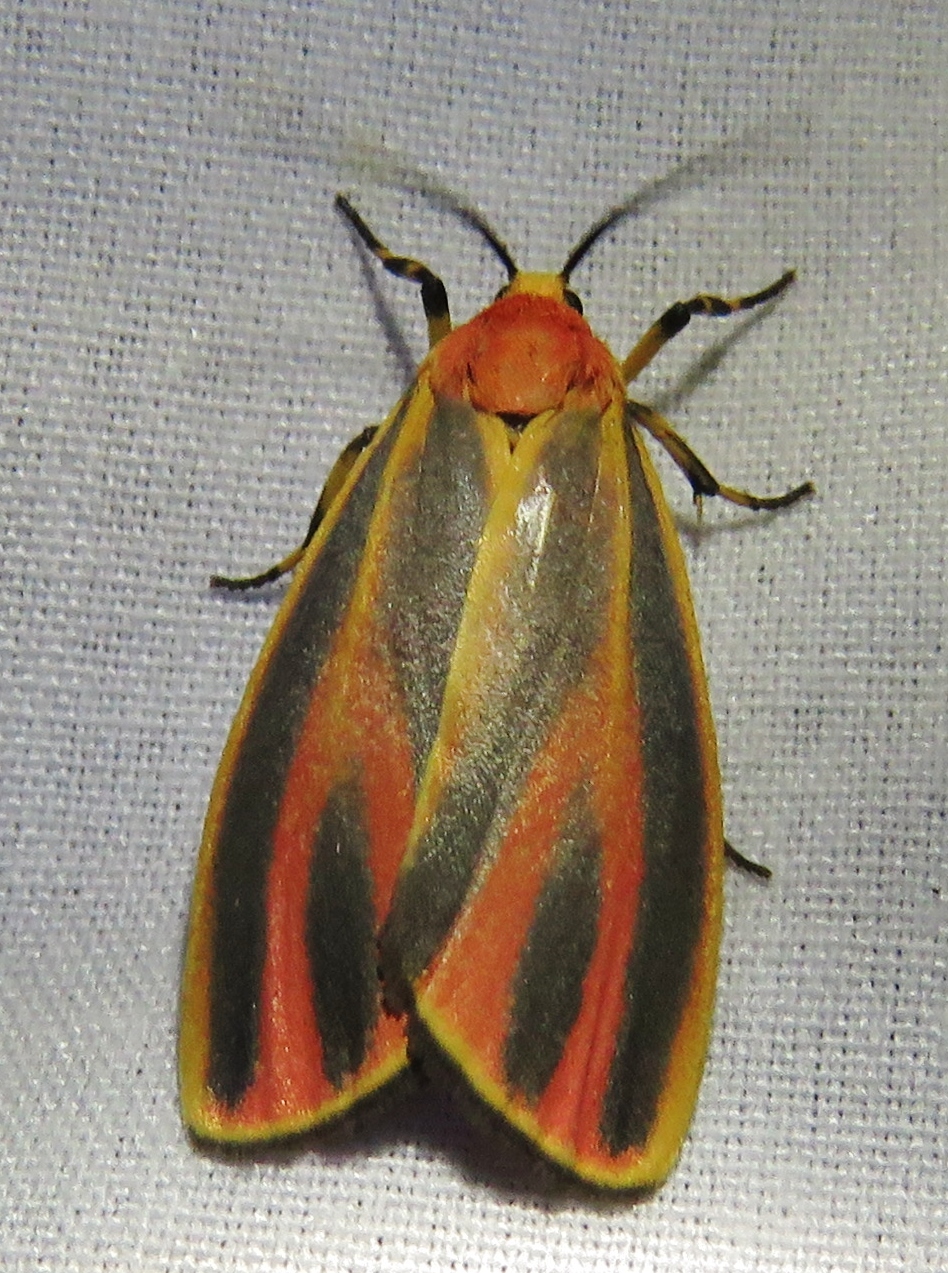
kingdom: Animalia
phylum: Arthropoda
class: Insecta
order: Lepidoptera
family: Erebidae
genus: Hypoprepia
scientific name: Hypoprepia fucosa
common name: Painted lichen moth
